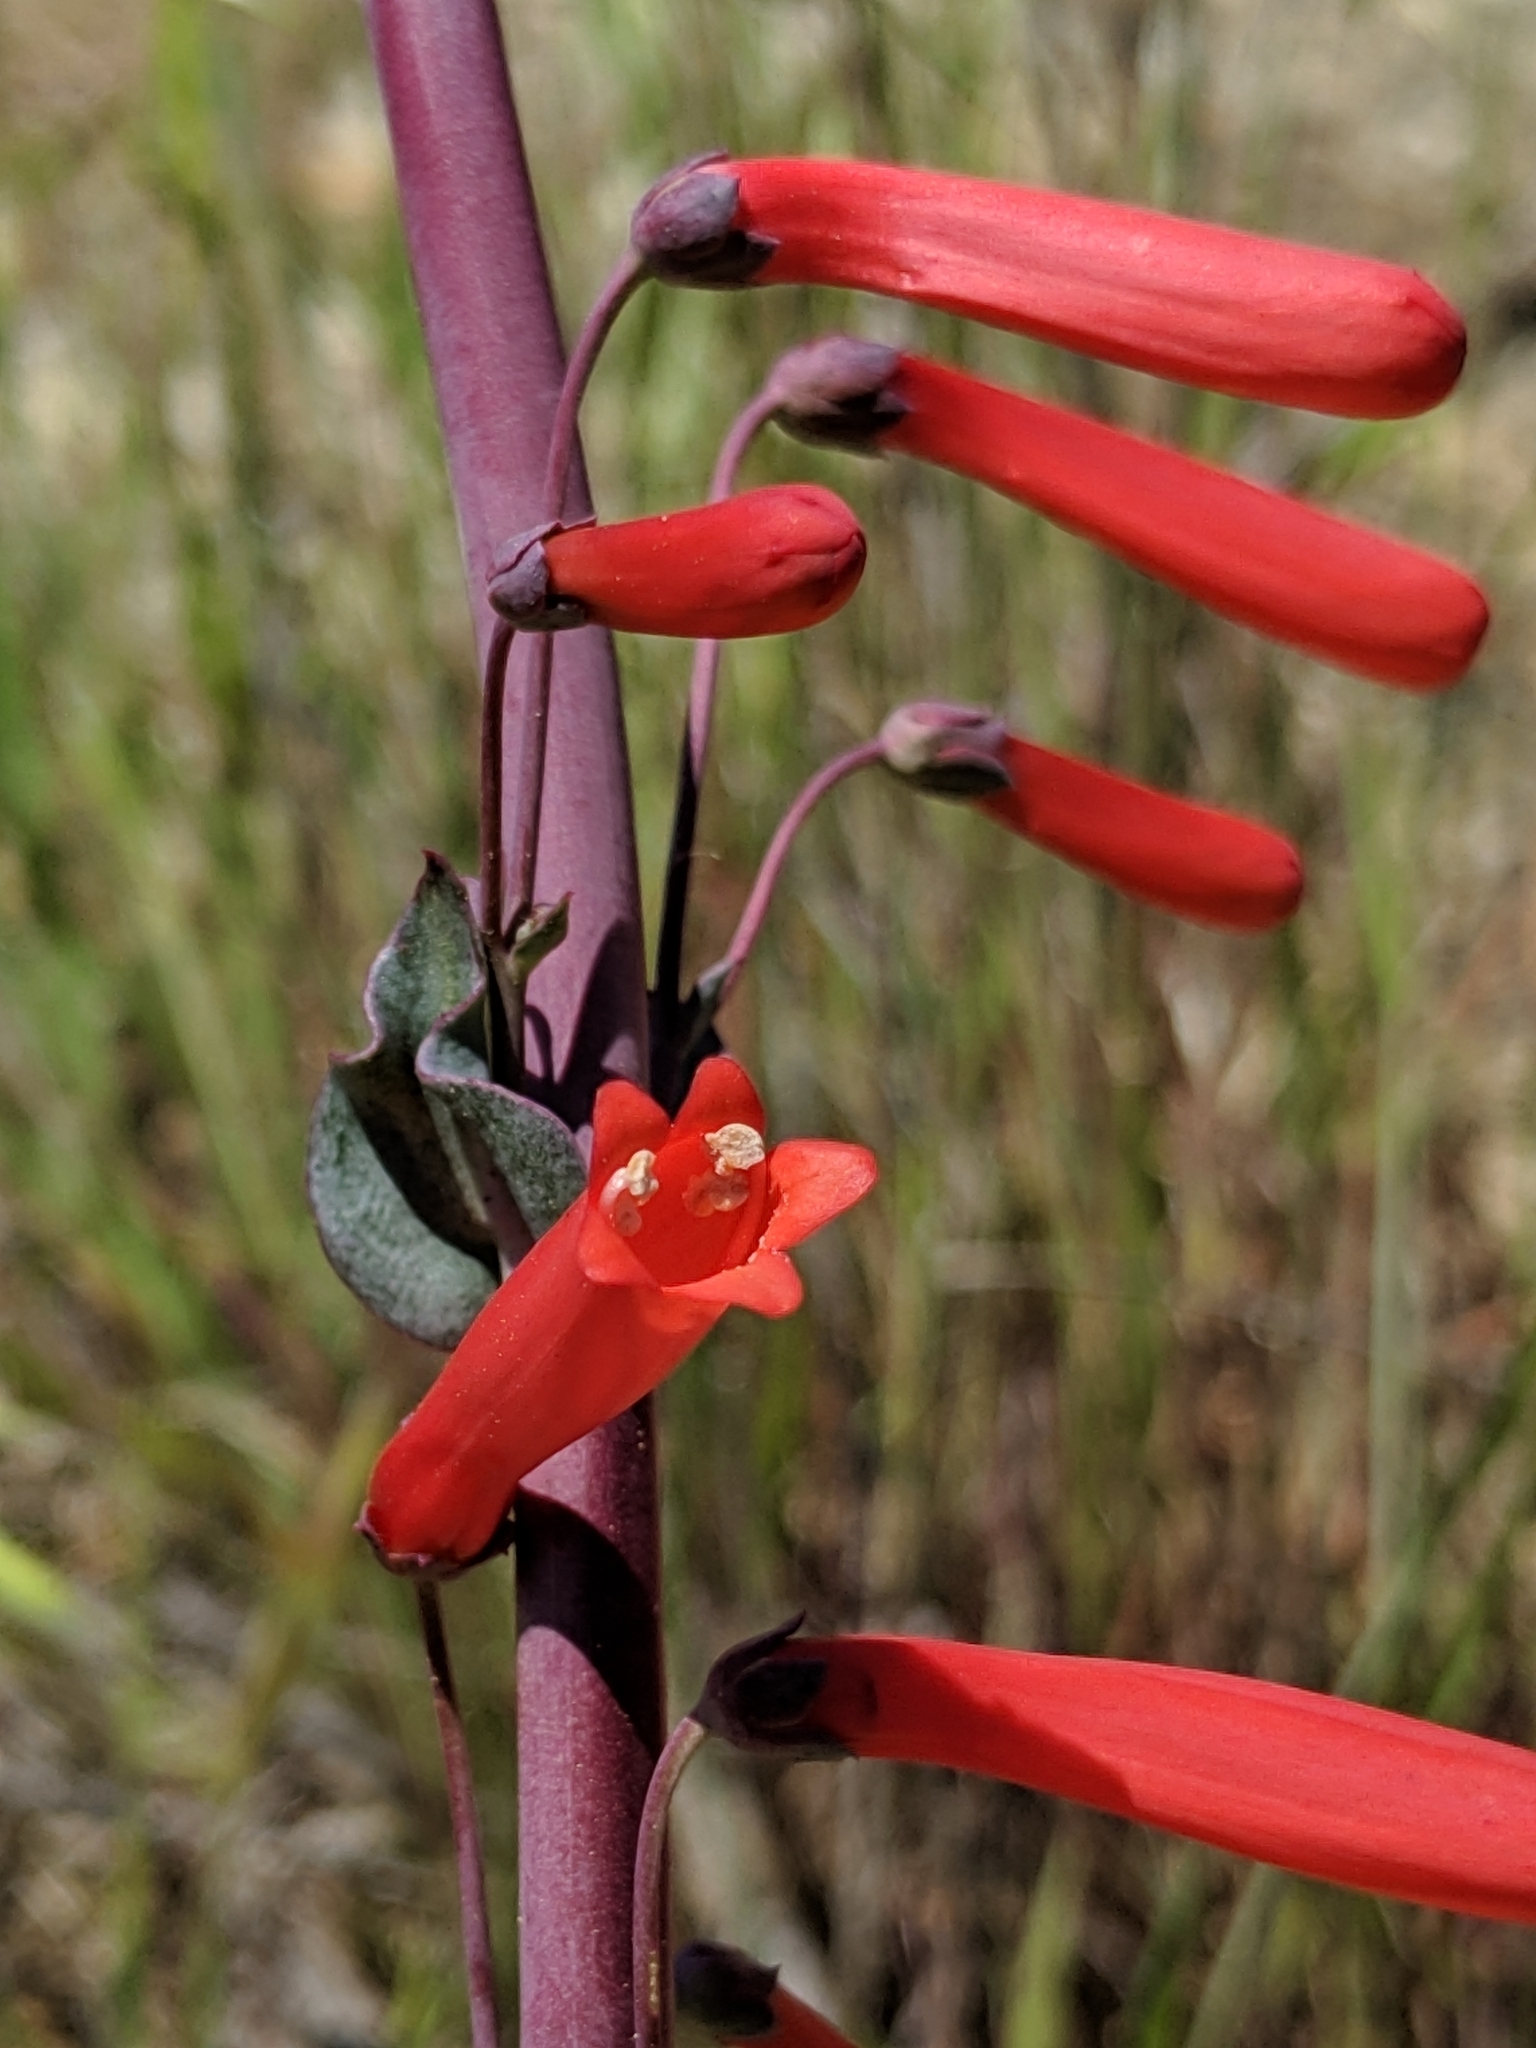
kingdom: Plantae
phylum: Tracheophyta
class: Magnoliopsida
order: Lamiales
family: Plantaginaceae
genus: Penstemon
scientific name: Penstemon centranthifolius
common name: Scarlet bugler
